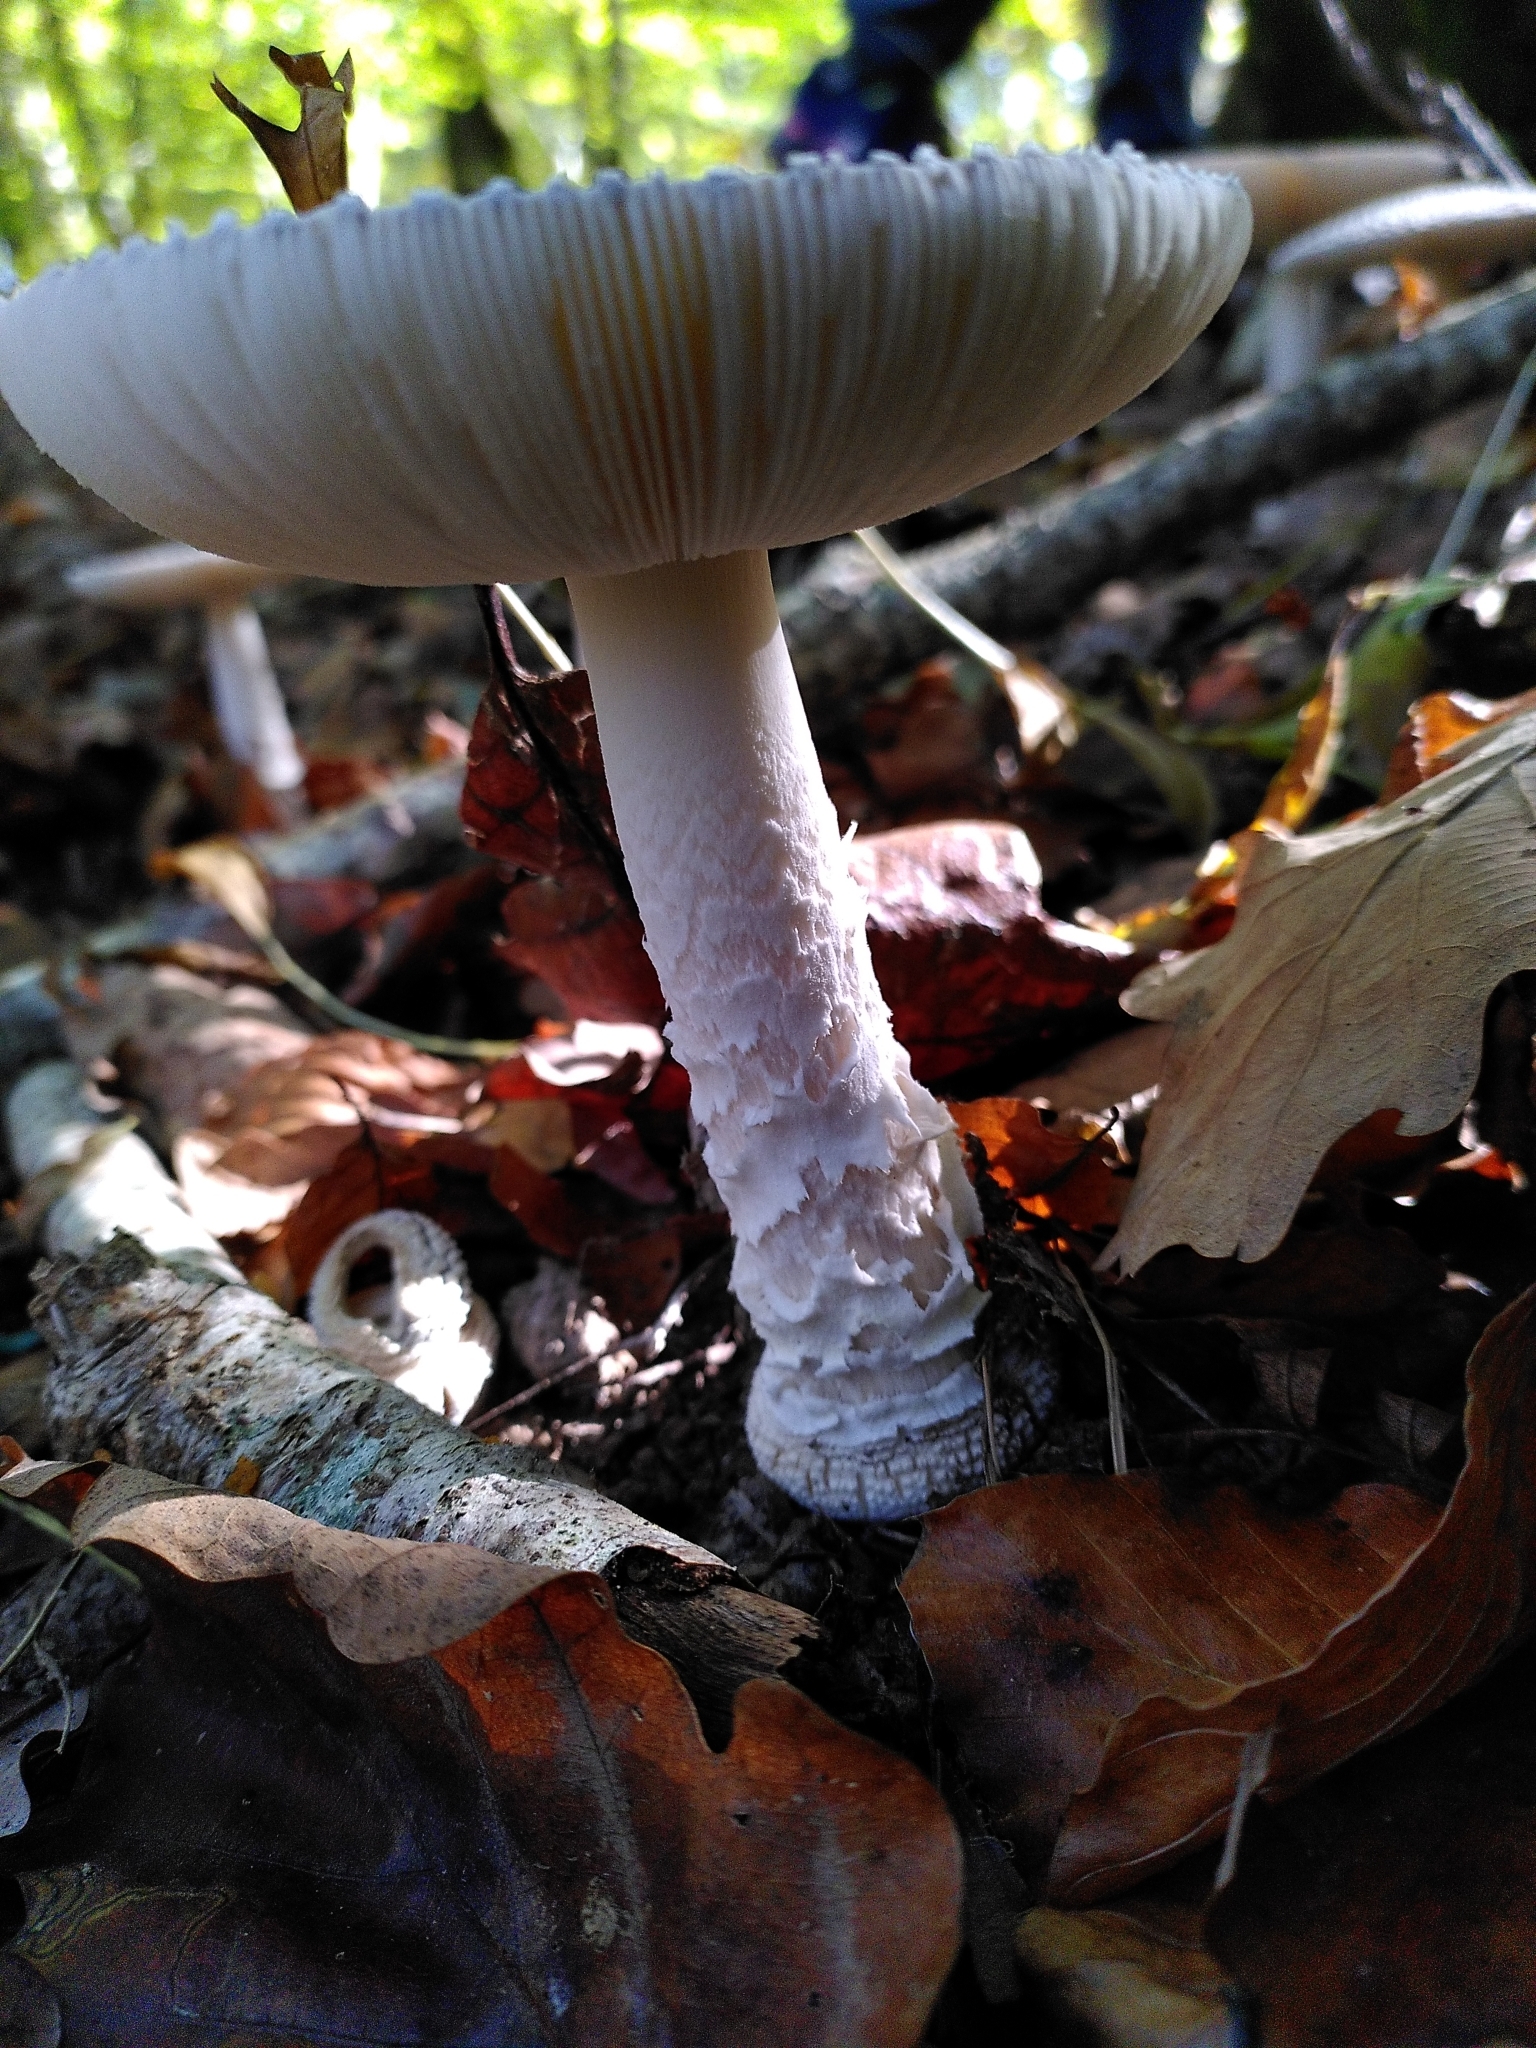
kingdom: Fungi
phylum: Basidiomycota
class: Agaricomycetes
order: Agaricales
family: Amanitaceae
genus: Amanita
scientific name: Amanita pantherina
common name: Panthercap
